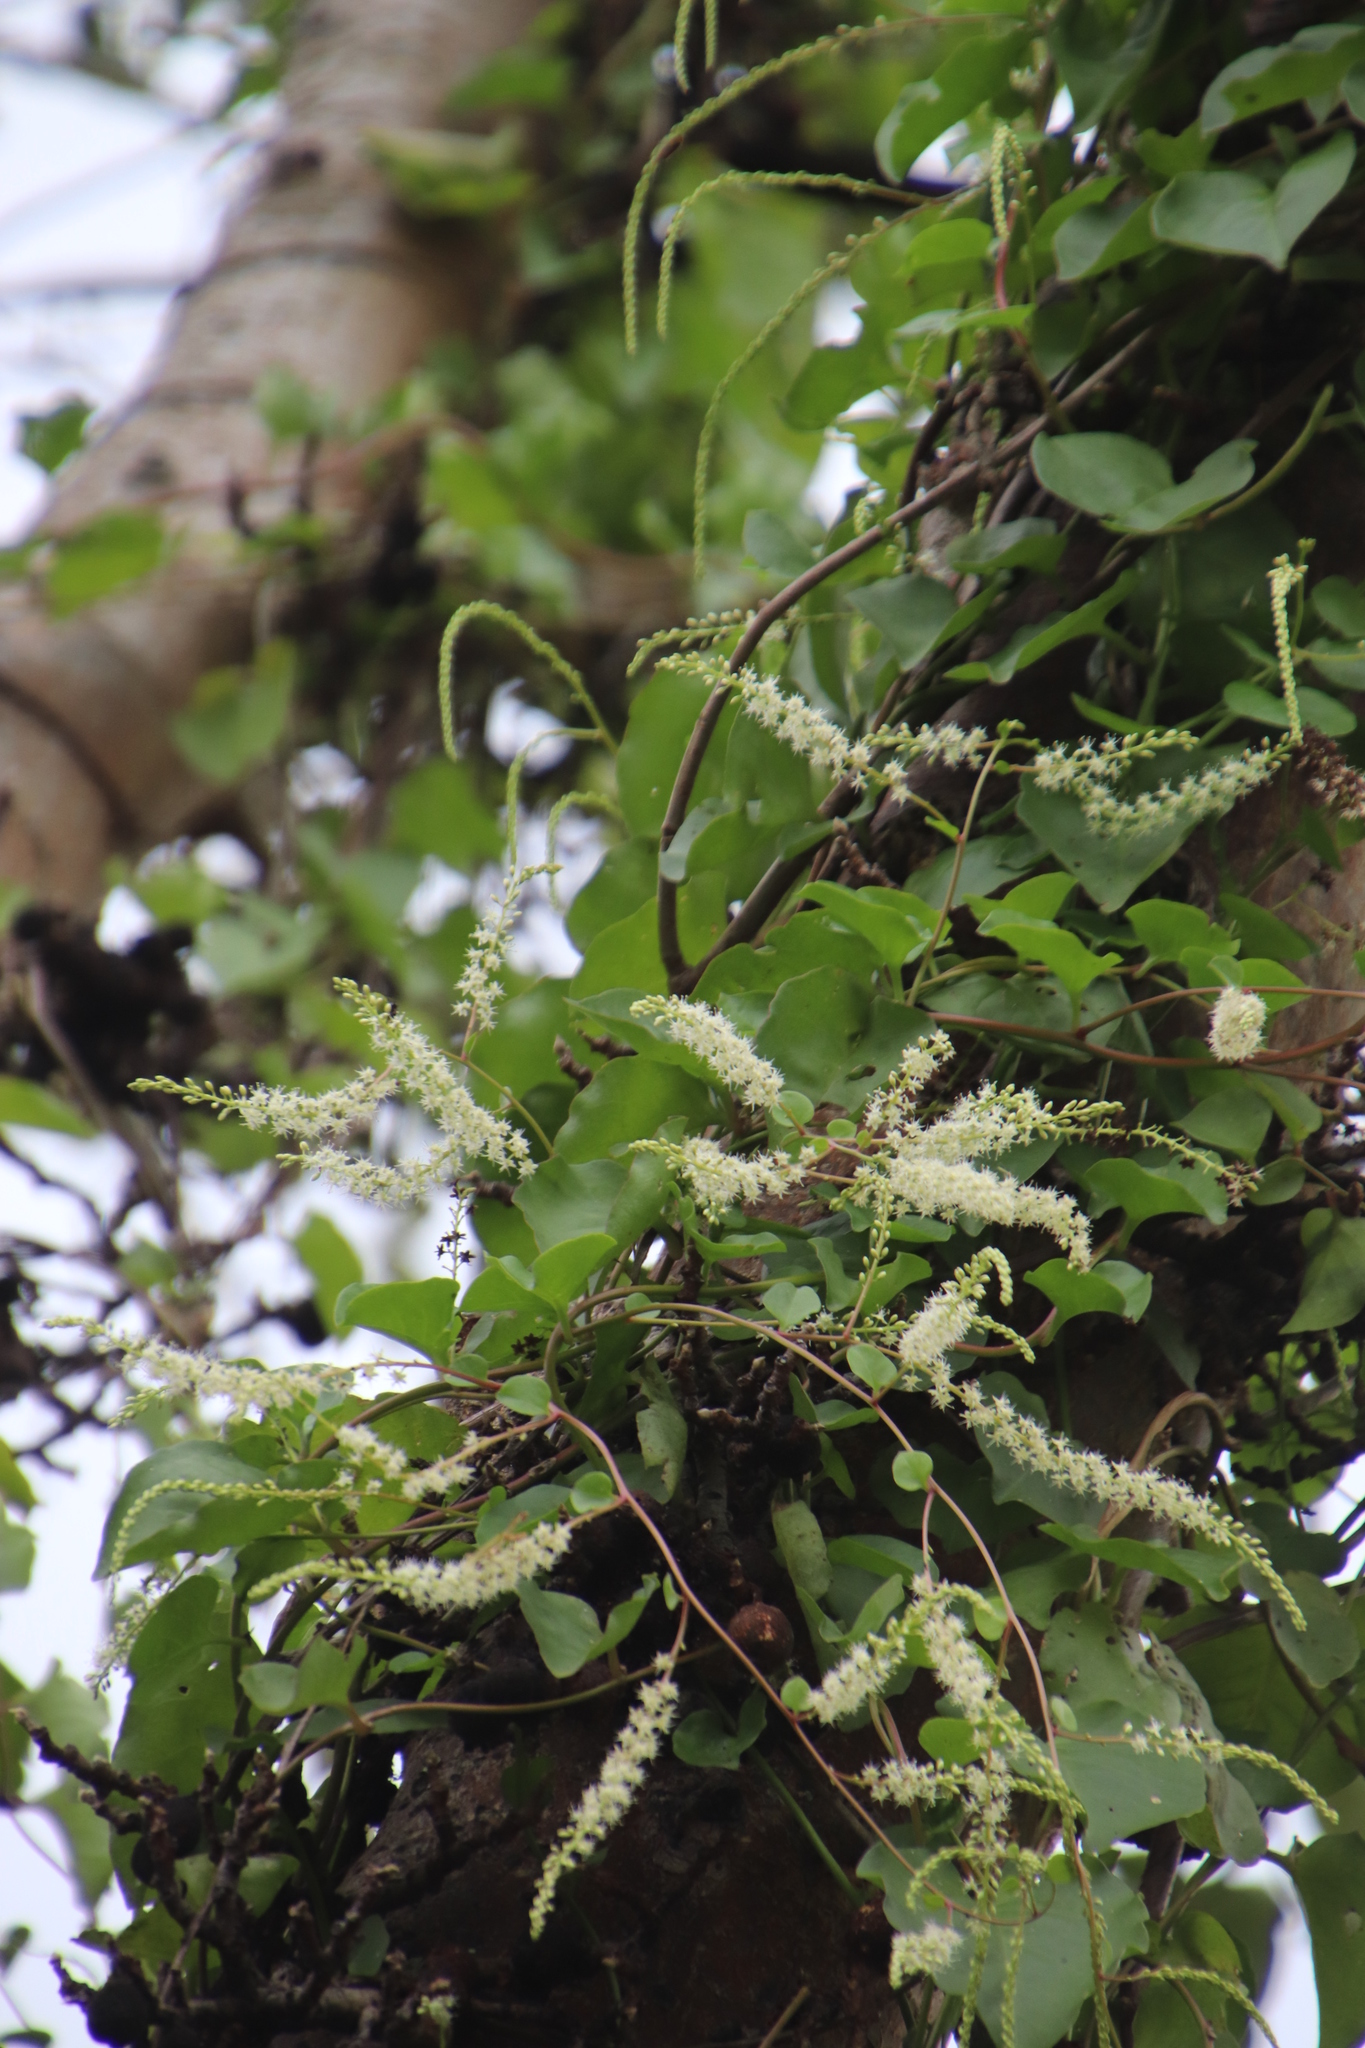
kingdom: Plantae
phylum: Tracheophyta
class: Magnoliopsida
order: Caryophyllales
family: Basellaceae
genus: Anredera
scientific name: Anredera cordifolia
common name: Heartleaf madeiravine
